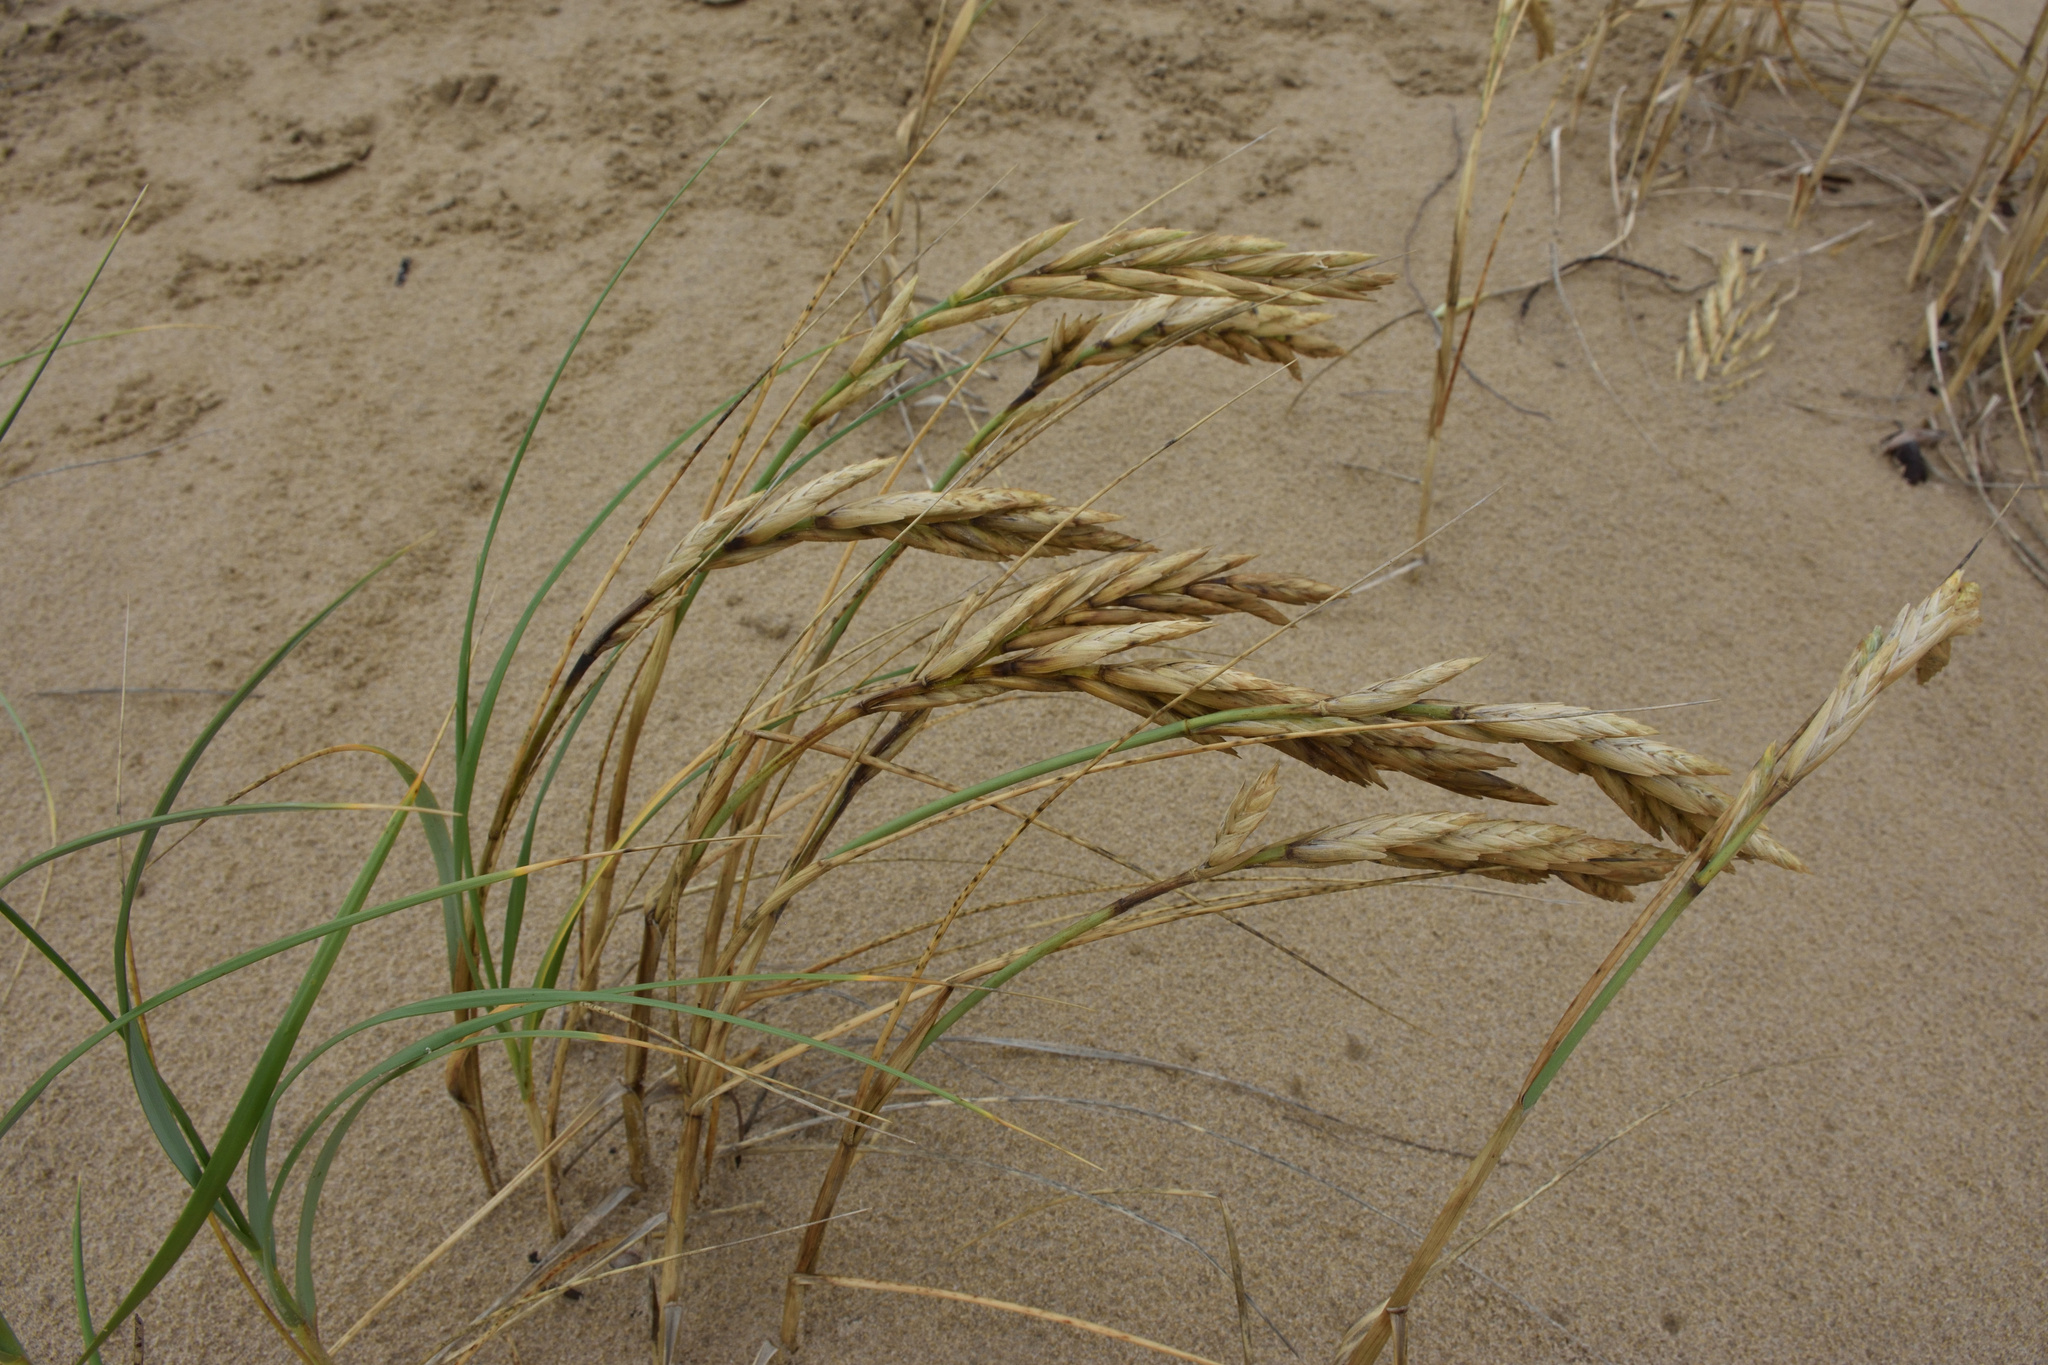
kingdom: Plantae
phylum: Tracheophyta
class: Liliopsida
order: Poales
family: Poaceae
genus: Thinopyrum
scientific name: Thinopyrum distichum
